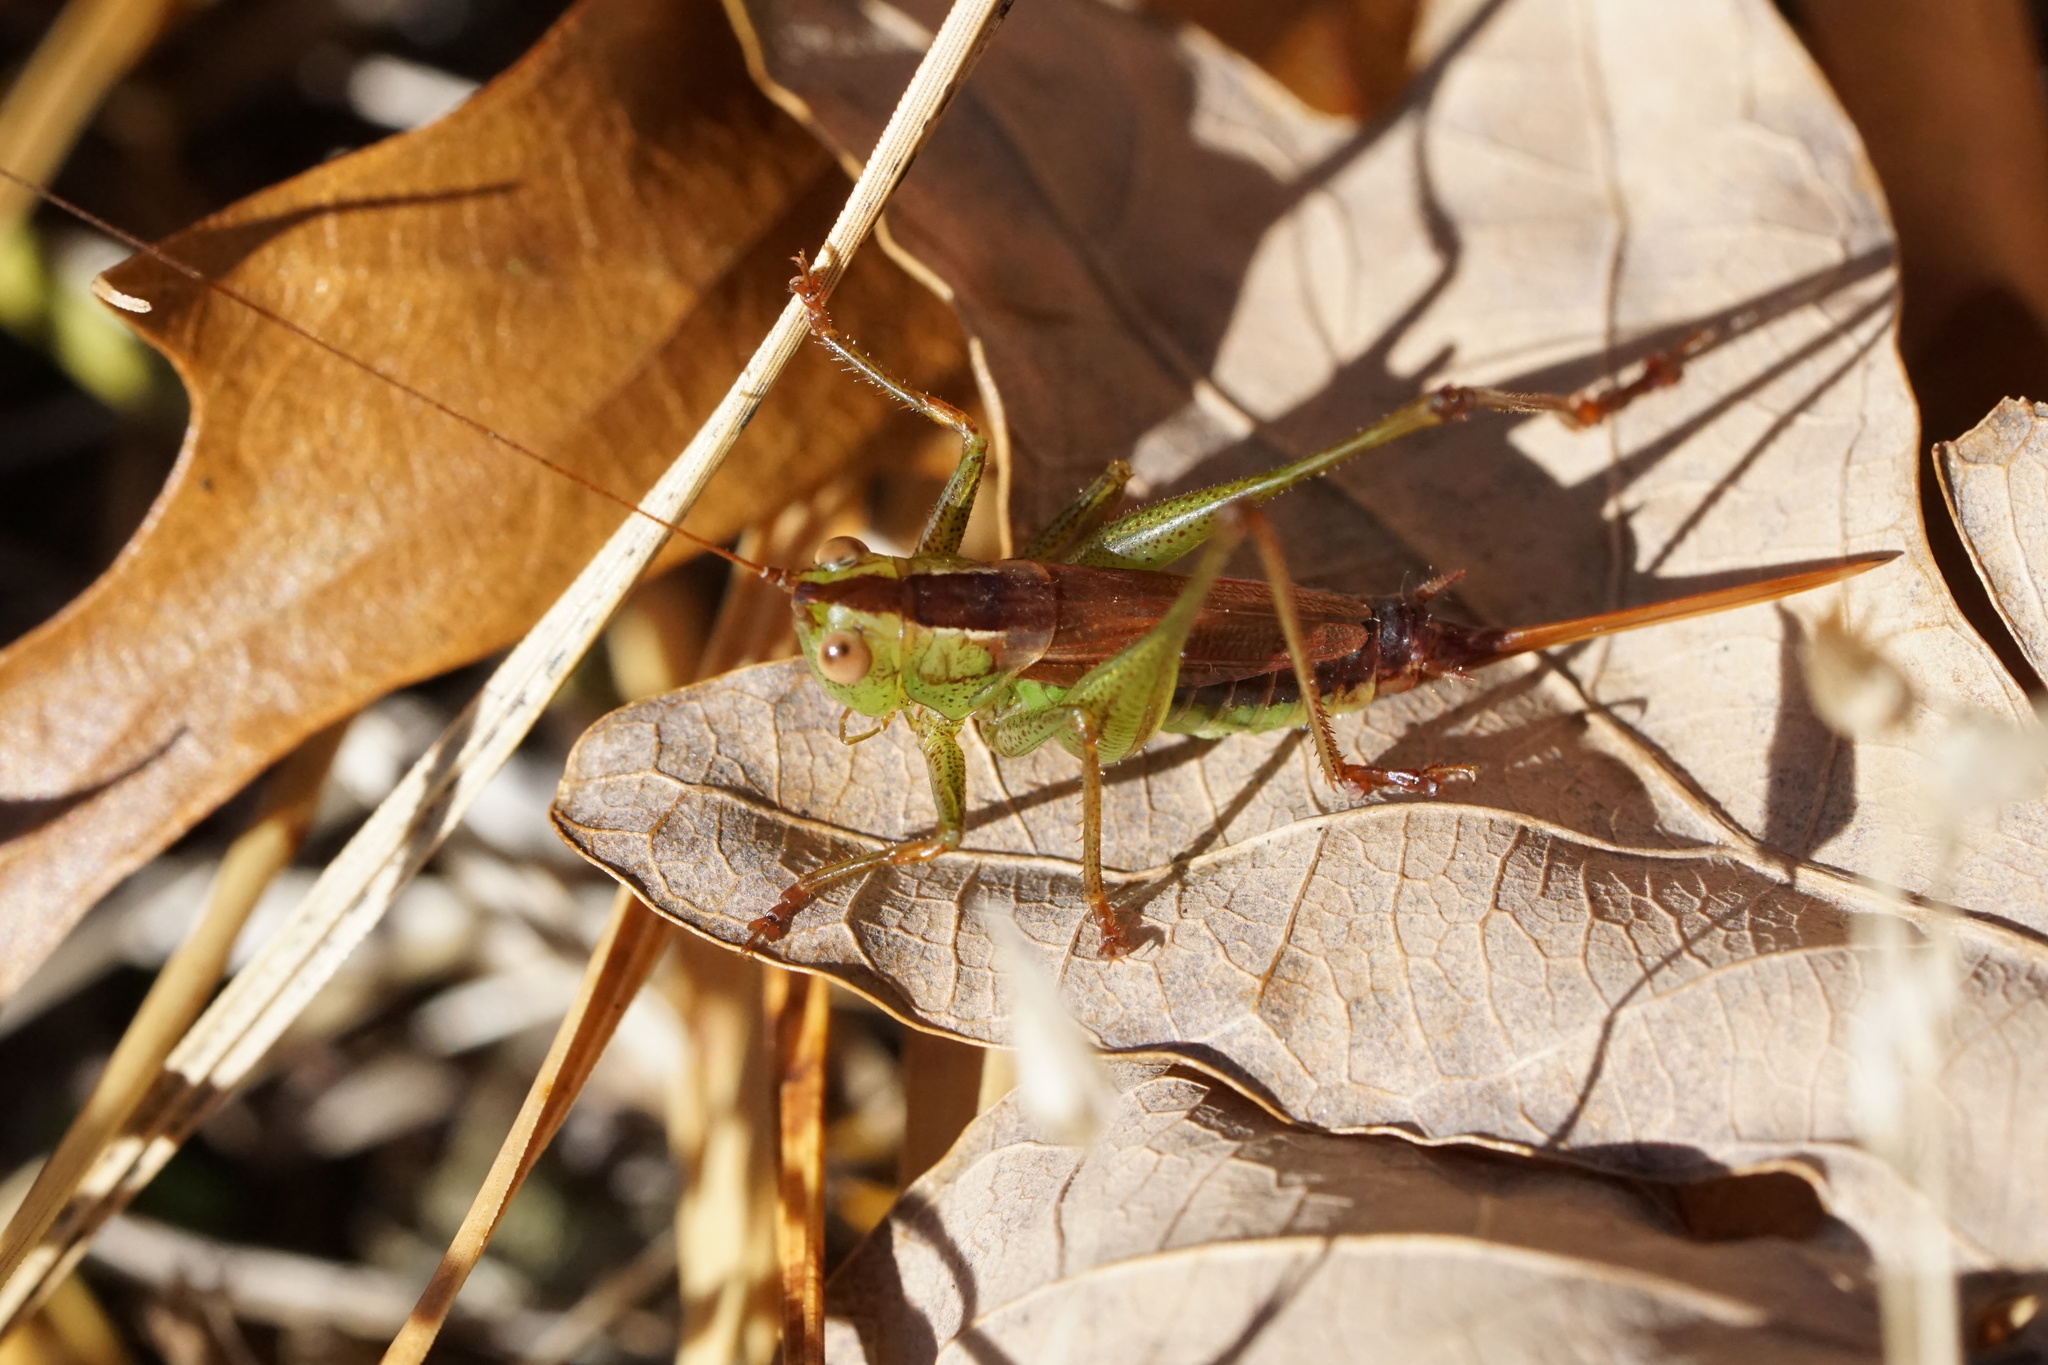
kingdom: Animalia
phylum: Arthropoda
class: Insecta
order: Orthoptera
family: Tettigoniidae
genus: Conocephalus
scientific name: Conocephalus brevipennis
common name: Short-winged meadow katydid
